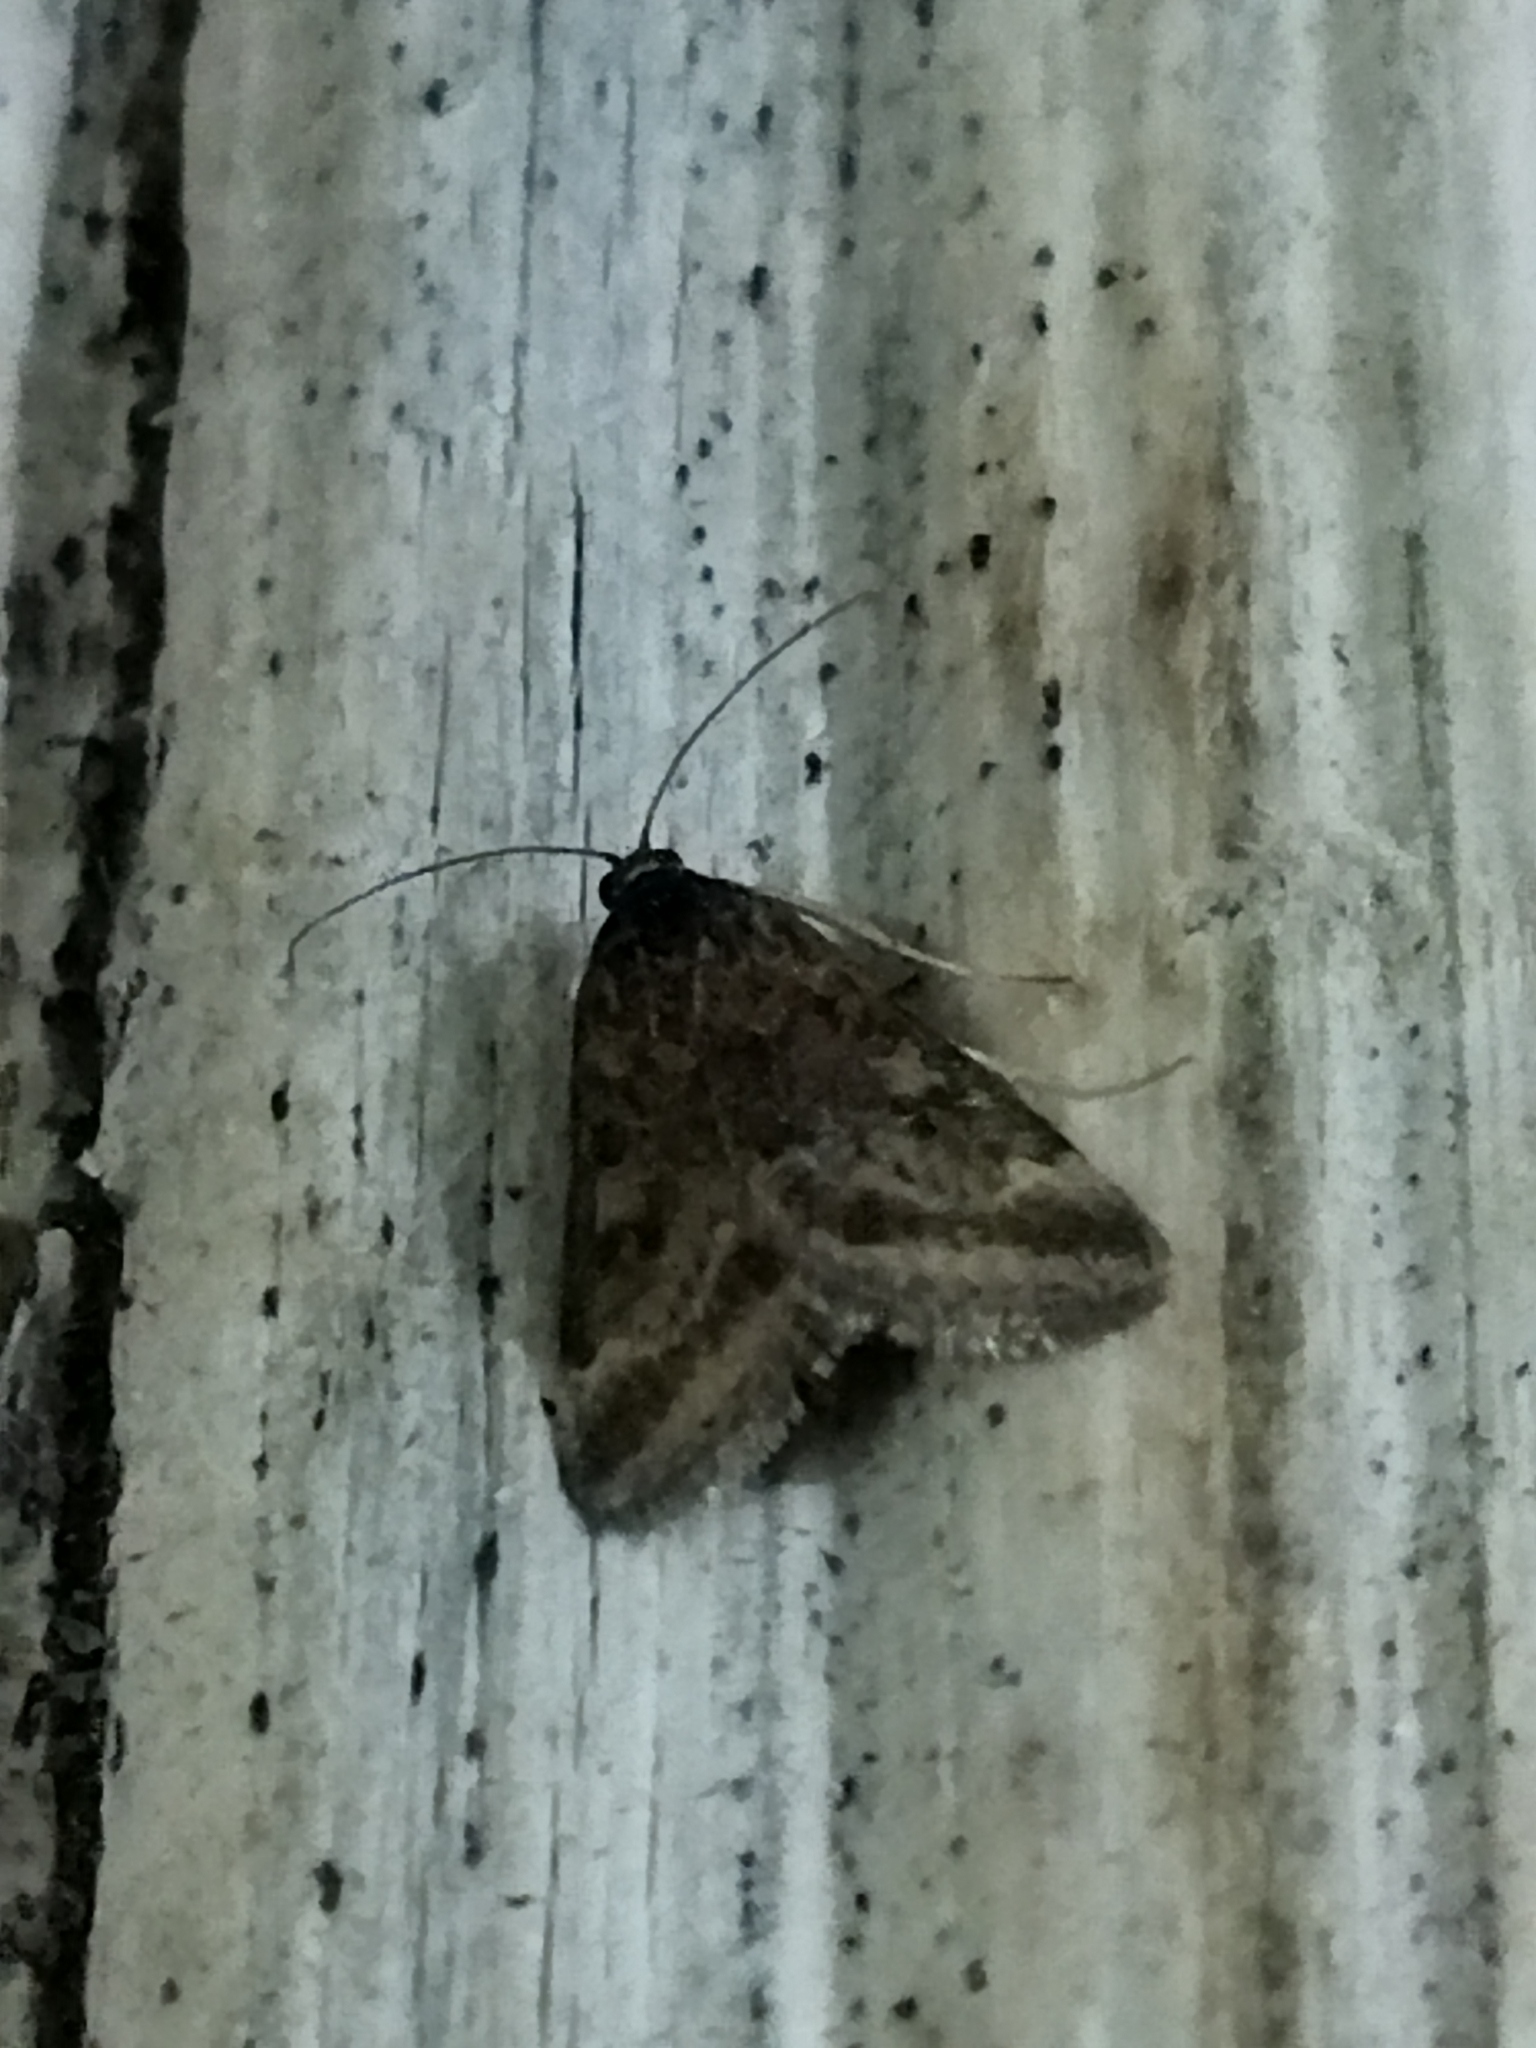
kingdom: Animalia
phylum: Arthropoda
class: Insecta
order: Lepidoptera
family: Crambidae
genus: Pyrausta
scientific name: Pyrausta despicata
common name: Straw-barred pearl
